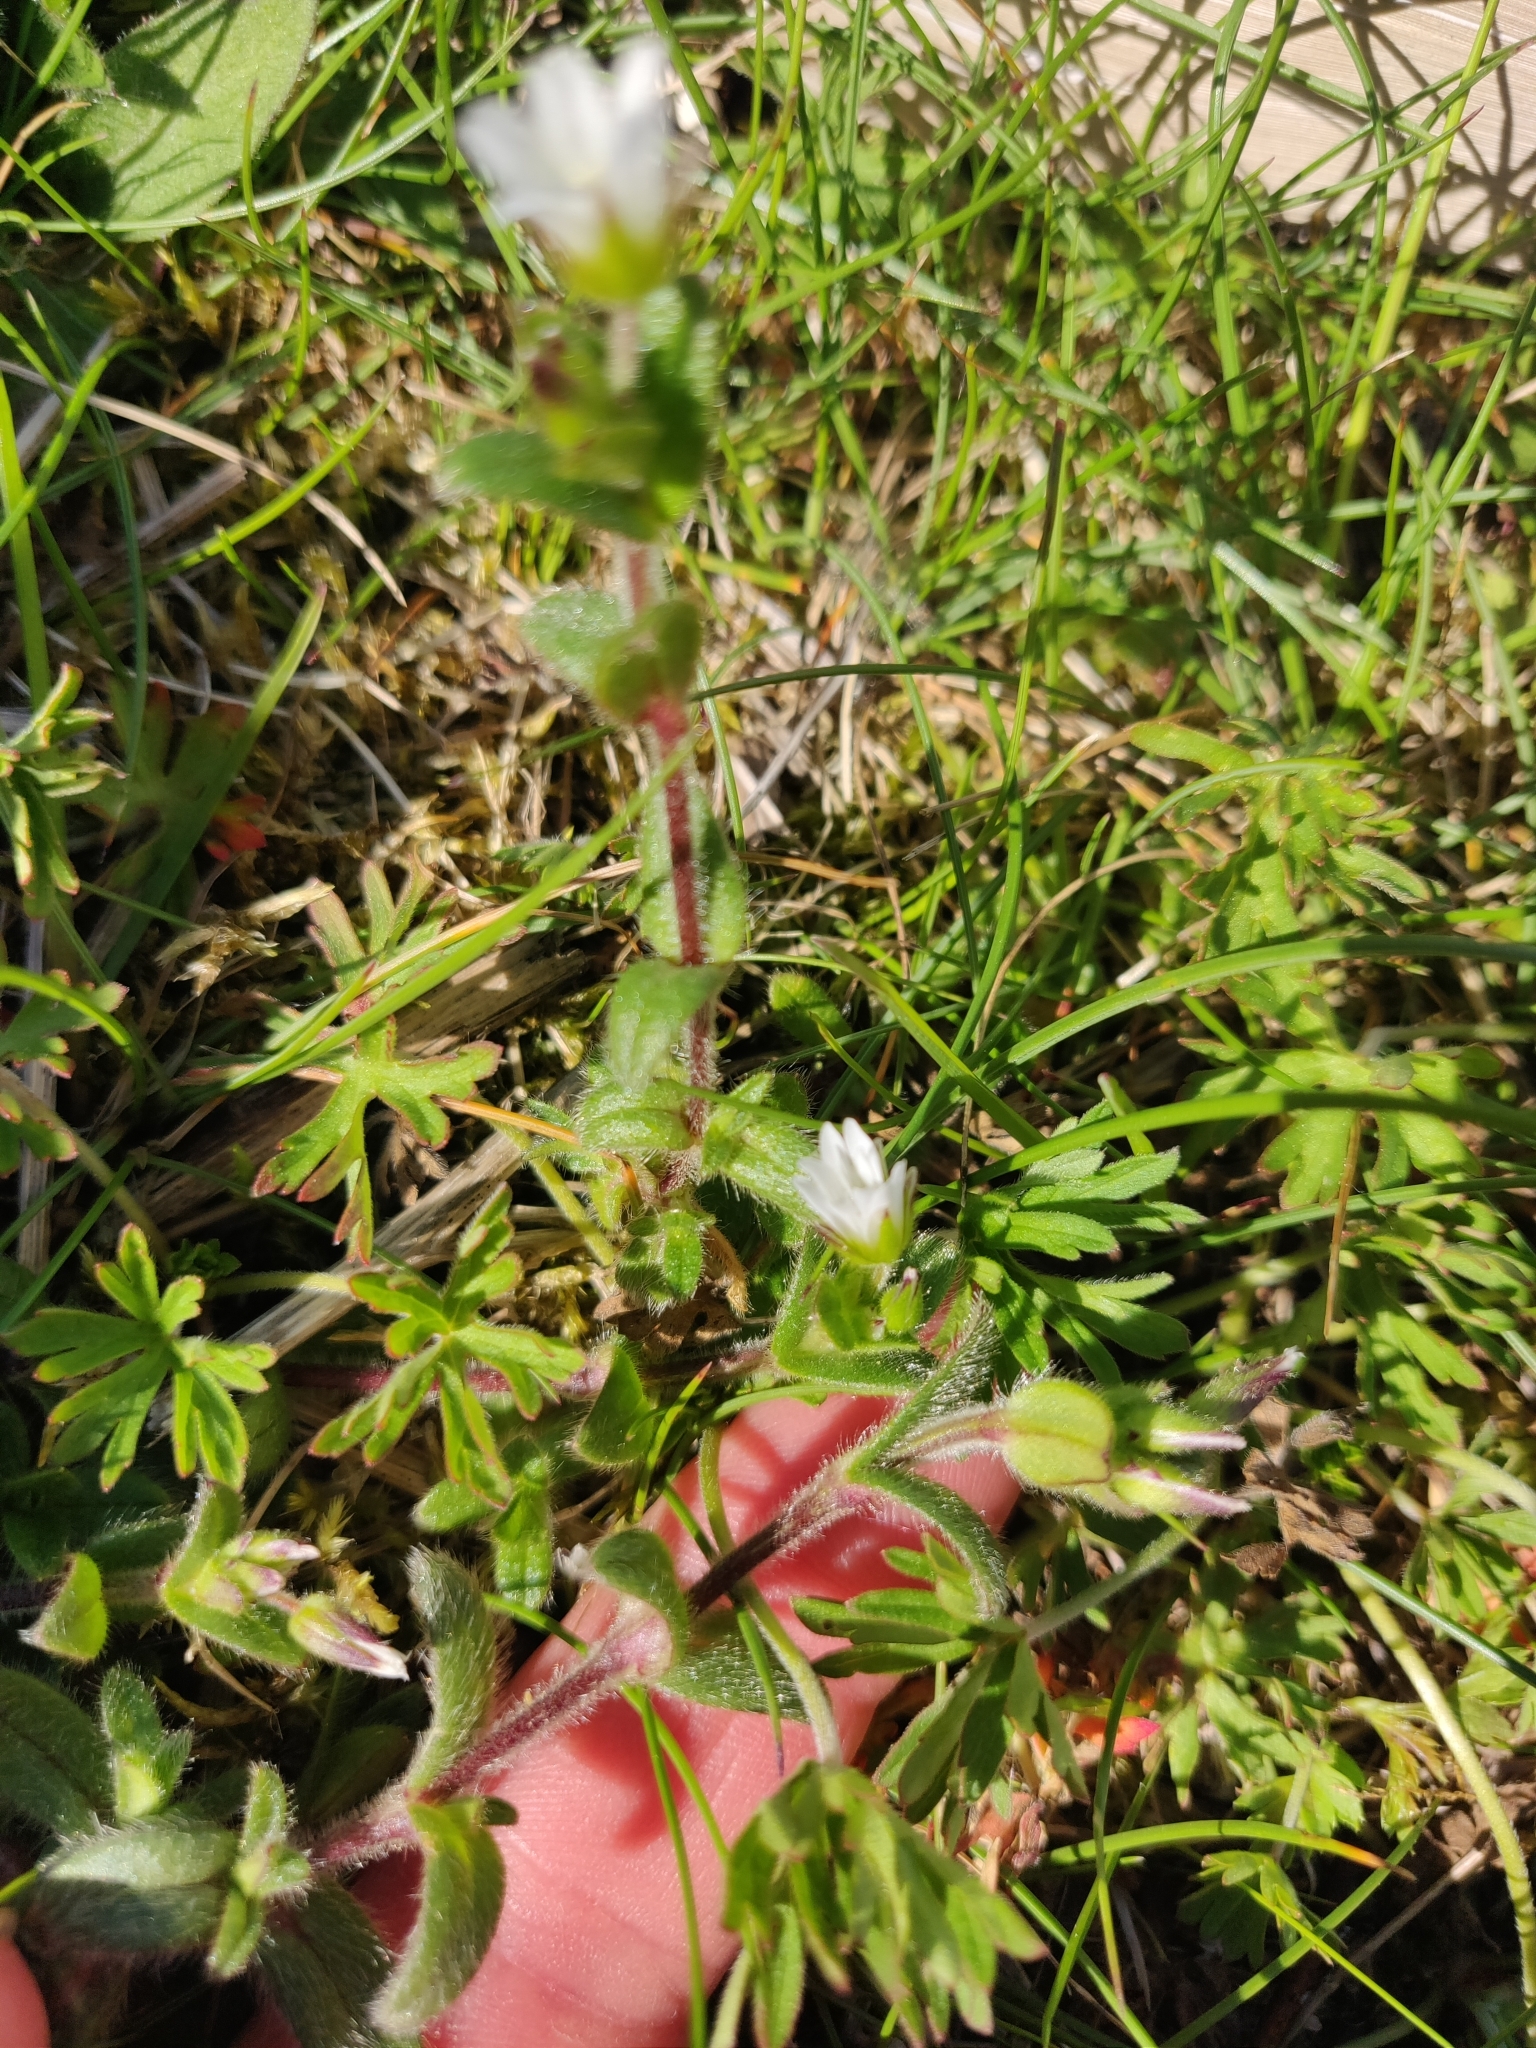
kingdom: Plantae
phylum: Tracheophyta
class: Magnoliopsida
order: Caryophyllales
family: Caryophyllaceae
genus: Cerastium
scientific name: Cerastium fontanum
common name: Common mouse-ear
